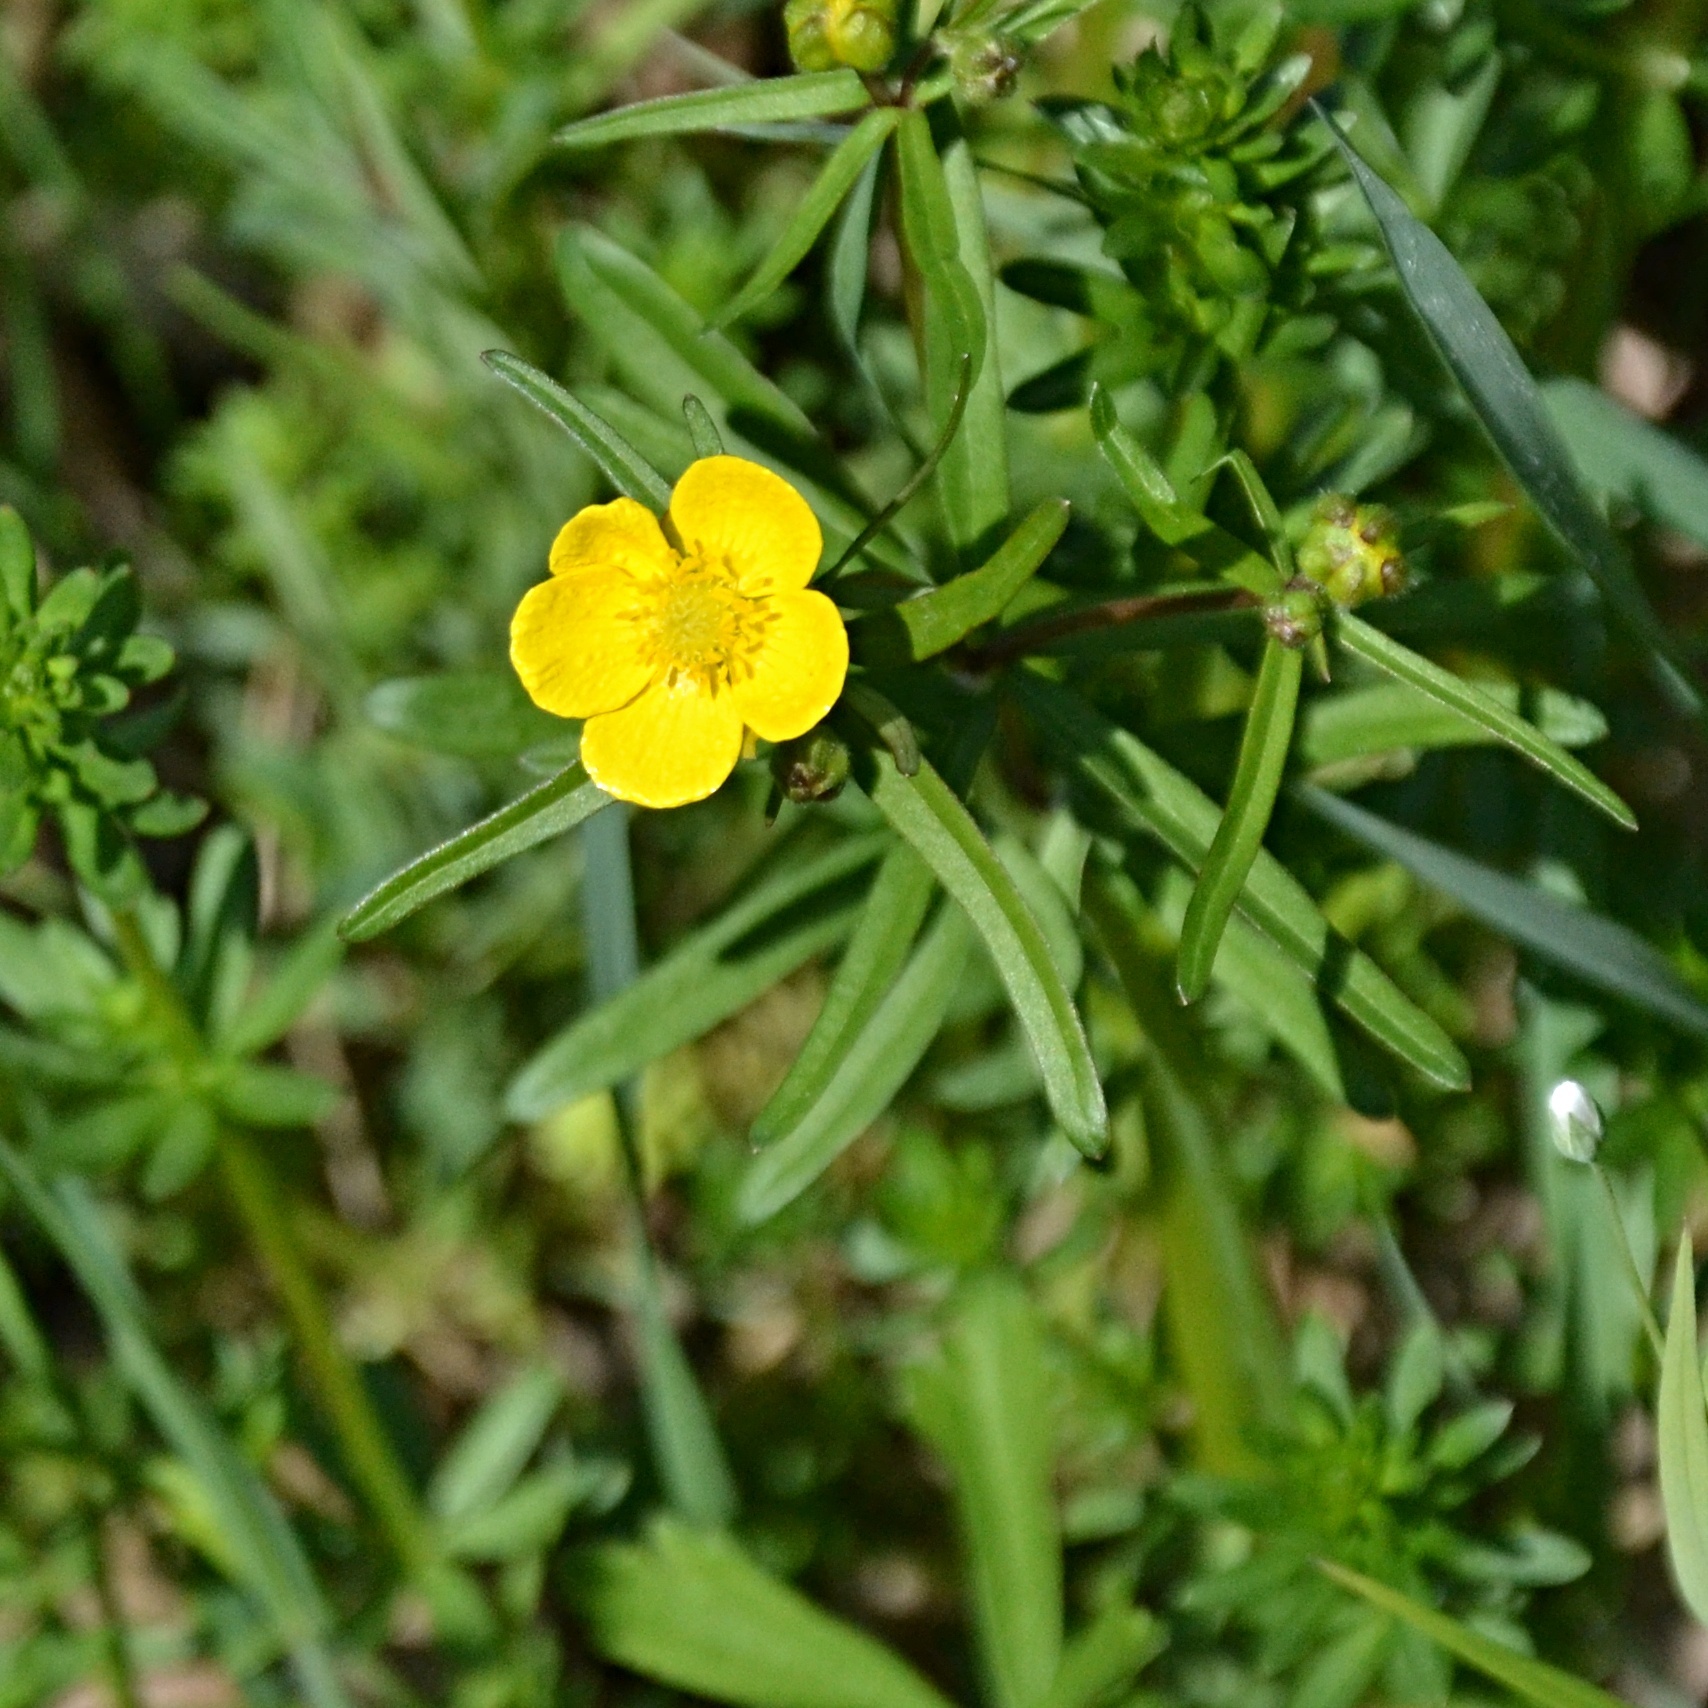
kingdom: Plantae
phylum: Tracheophyta
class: Magnoliopsida
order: Ranunculales
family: Ranunculaceae
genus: Ranunculus
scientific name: Ranunculus auricomus
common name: Goldilocks buttercup
